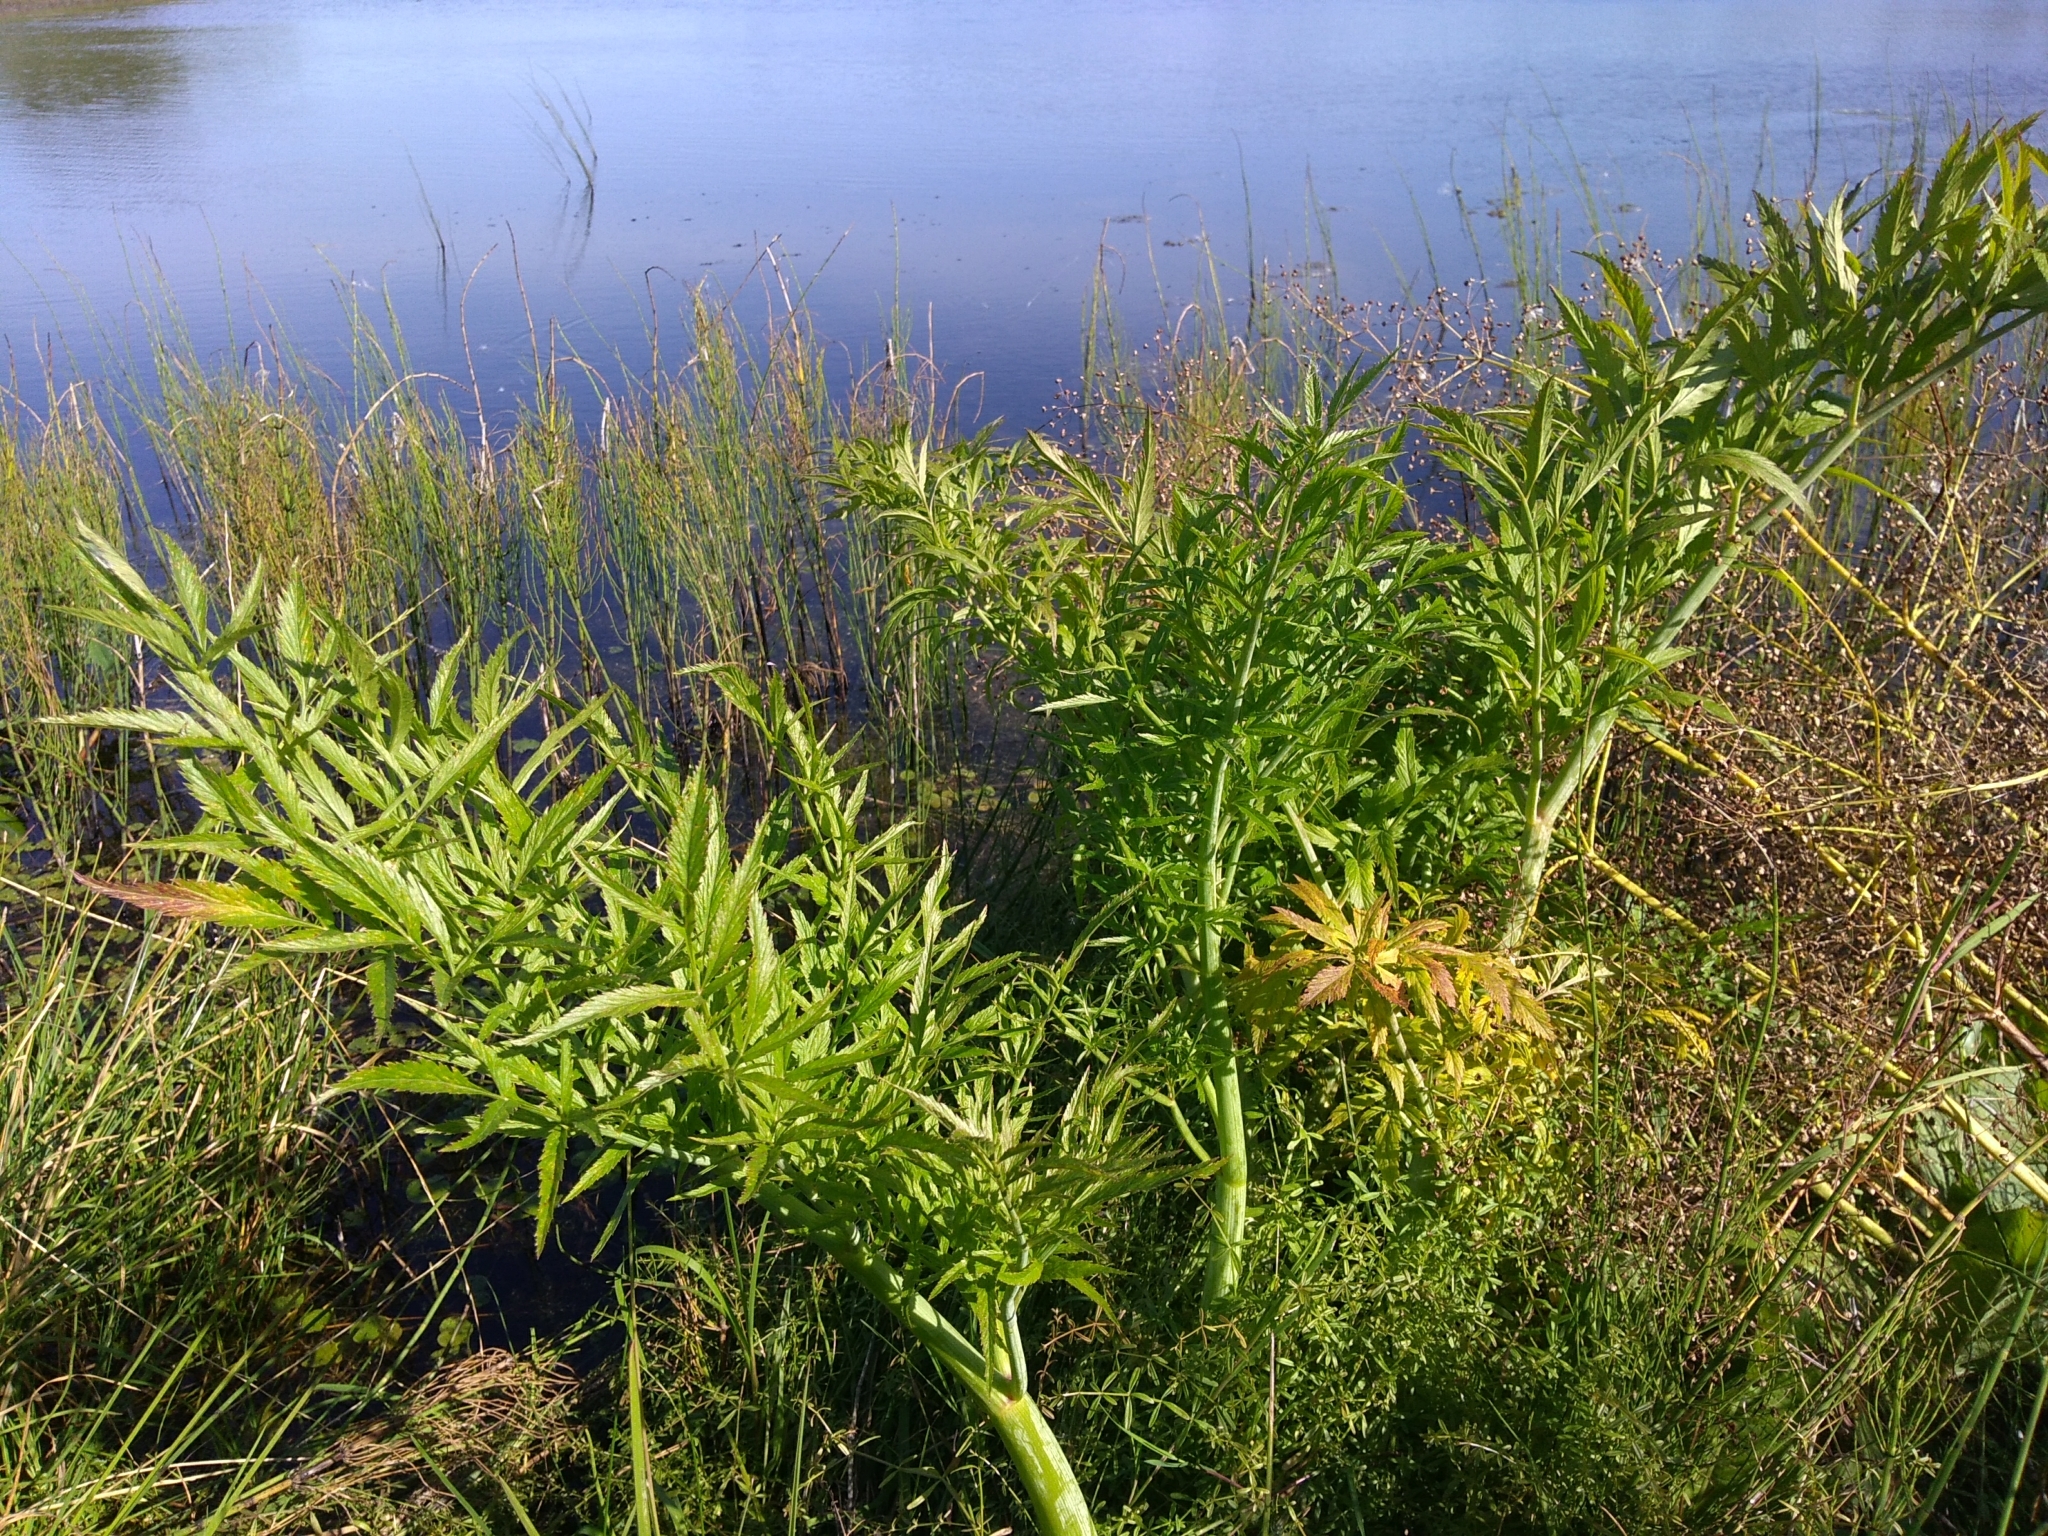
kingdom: Plantae
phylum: Tracheophyta
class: Magnoliopsida
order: Apiales
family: Apiaceae
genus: Cicuta
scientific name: Cicuta virosa
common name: Cowbane
